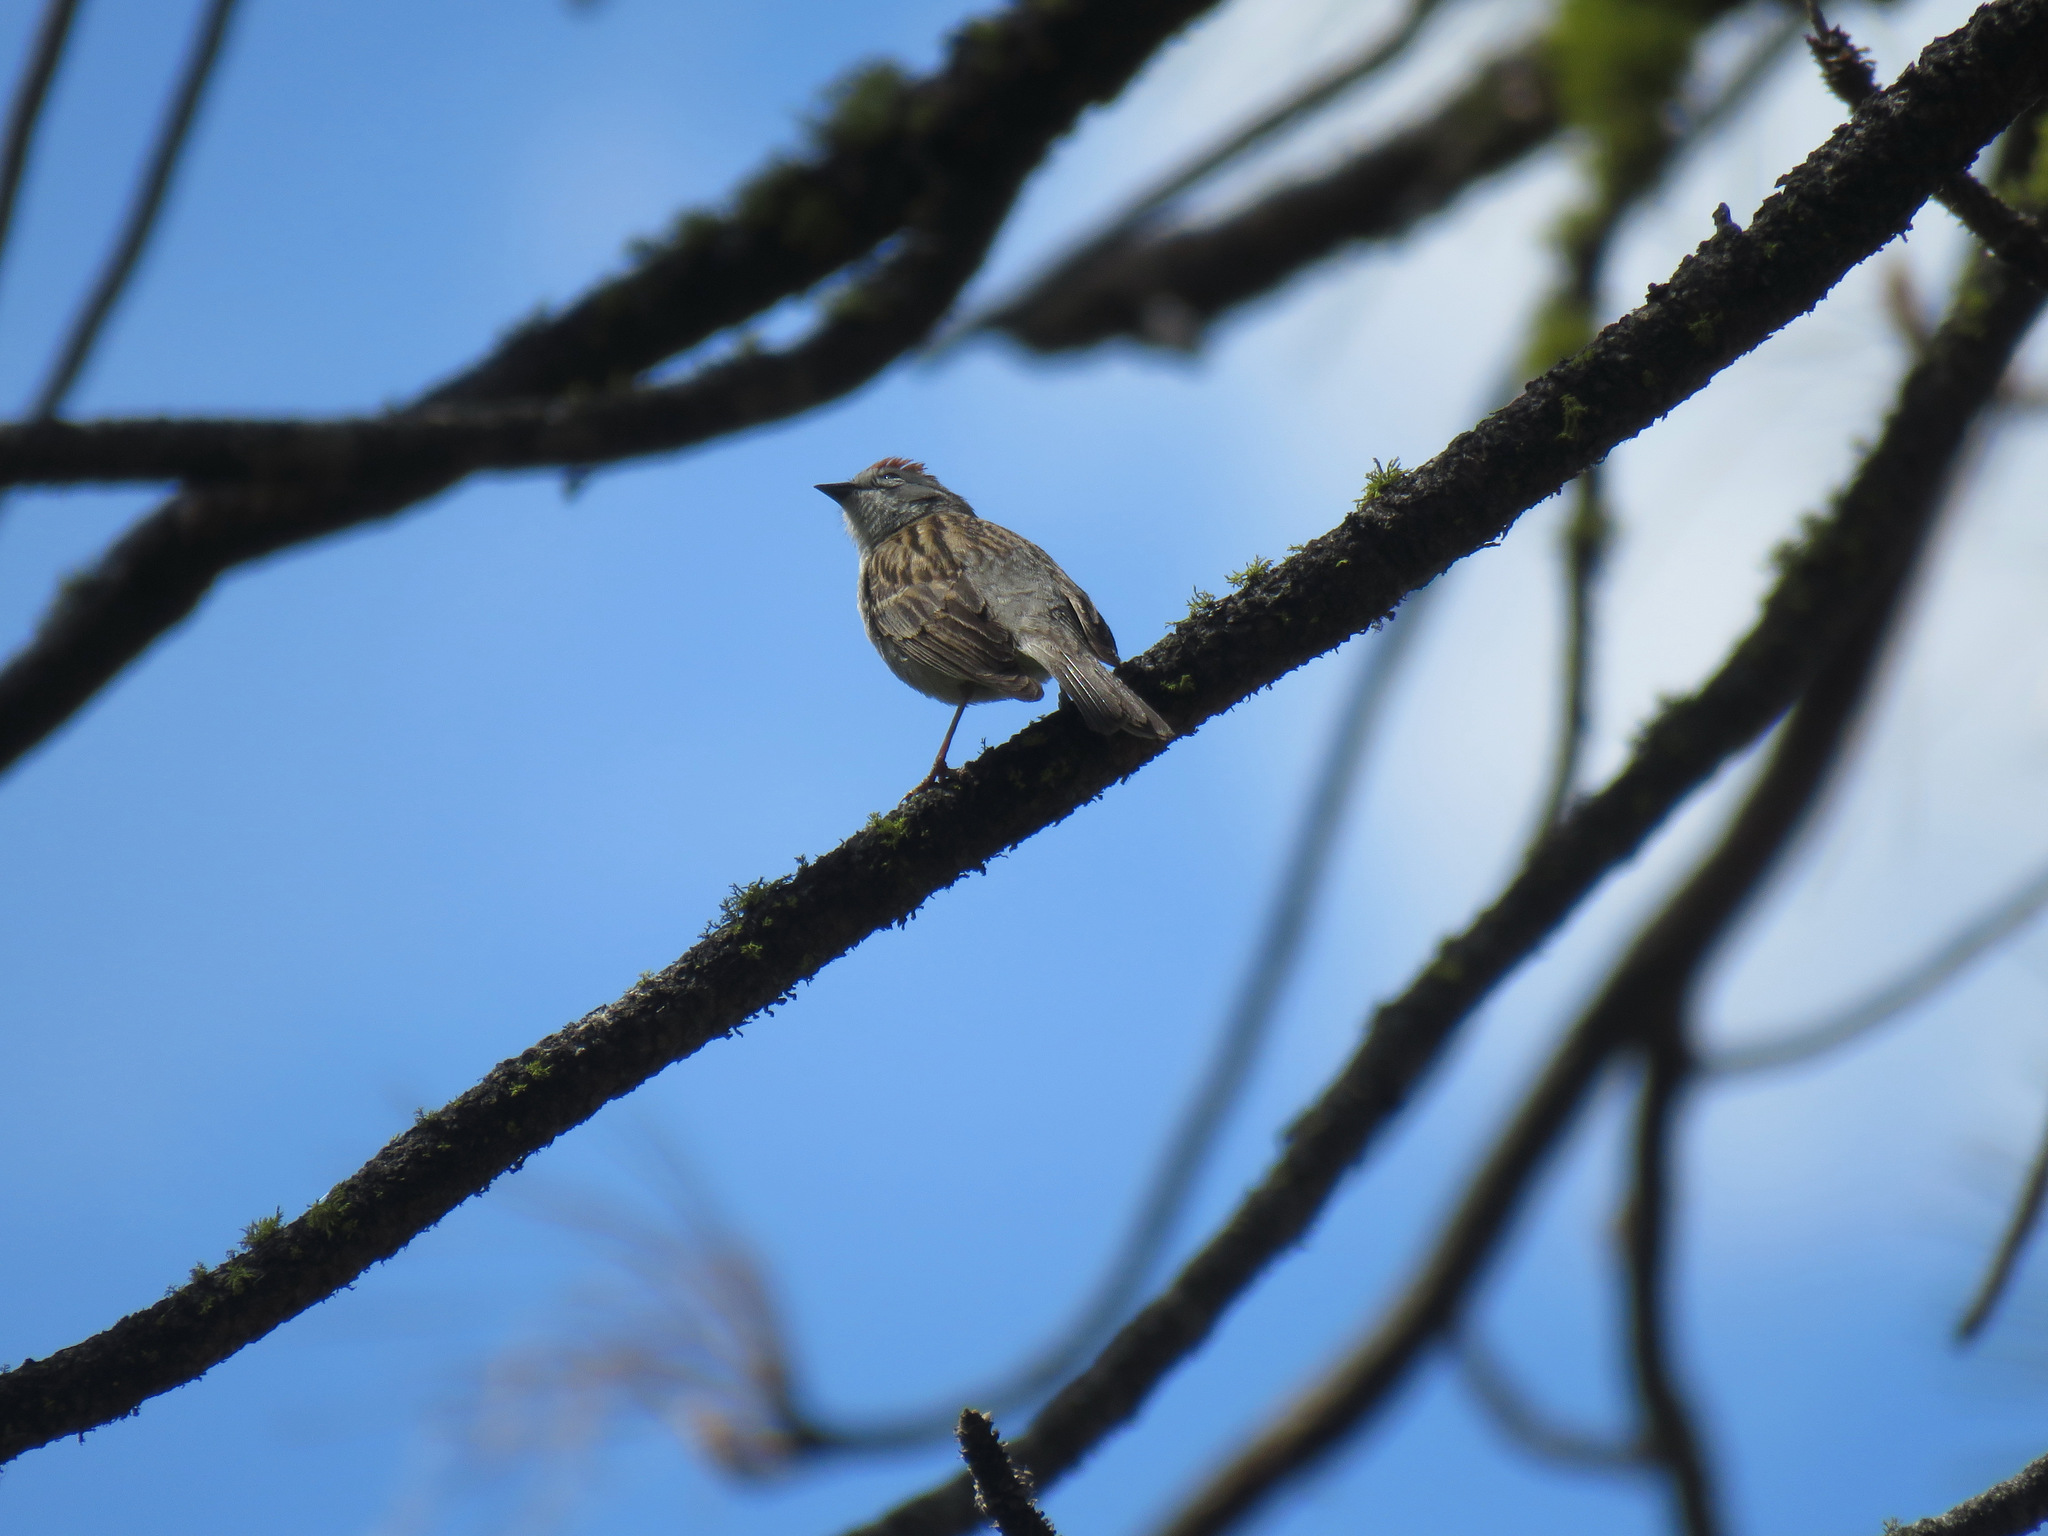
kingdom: Animalia
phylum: Chordata
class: Aves
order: Passeriformes
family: Passerellidae
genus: Spizella
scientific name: Spizella passerina
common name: Chipping sparrow
